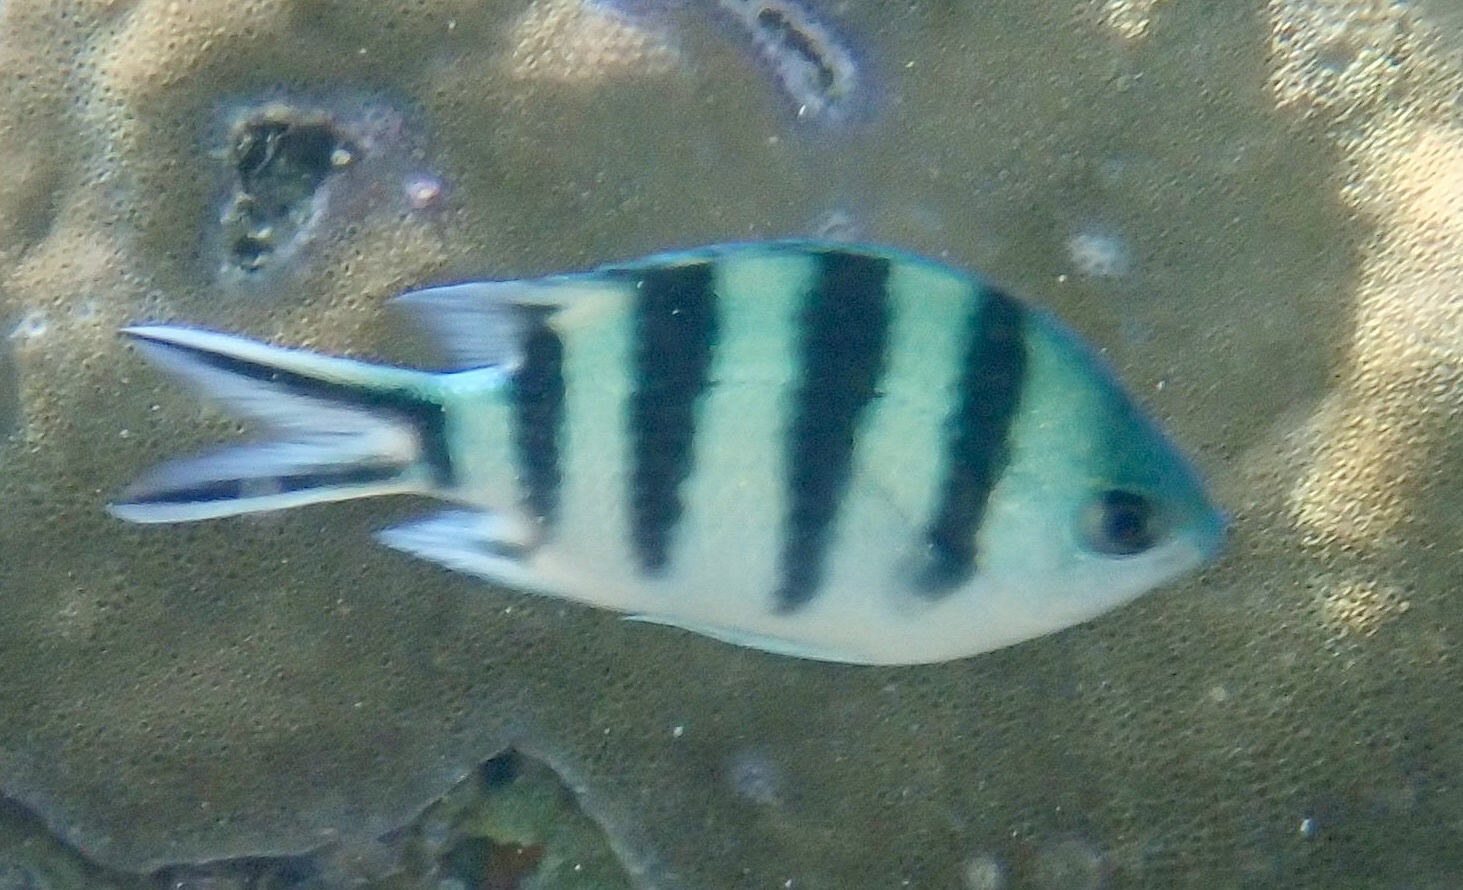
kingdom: Animalia
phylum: Chordata
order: Perciformes
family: Pomacentridae
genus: Abudefduf
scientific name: Abudefduf sexfasciatus
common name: Scissortail sergeant
